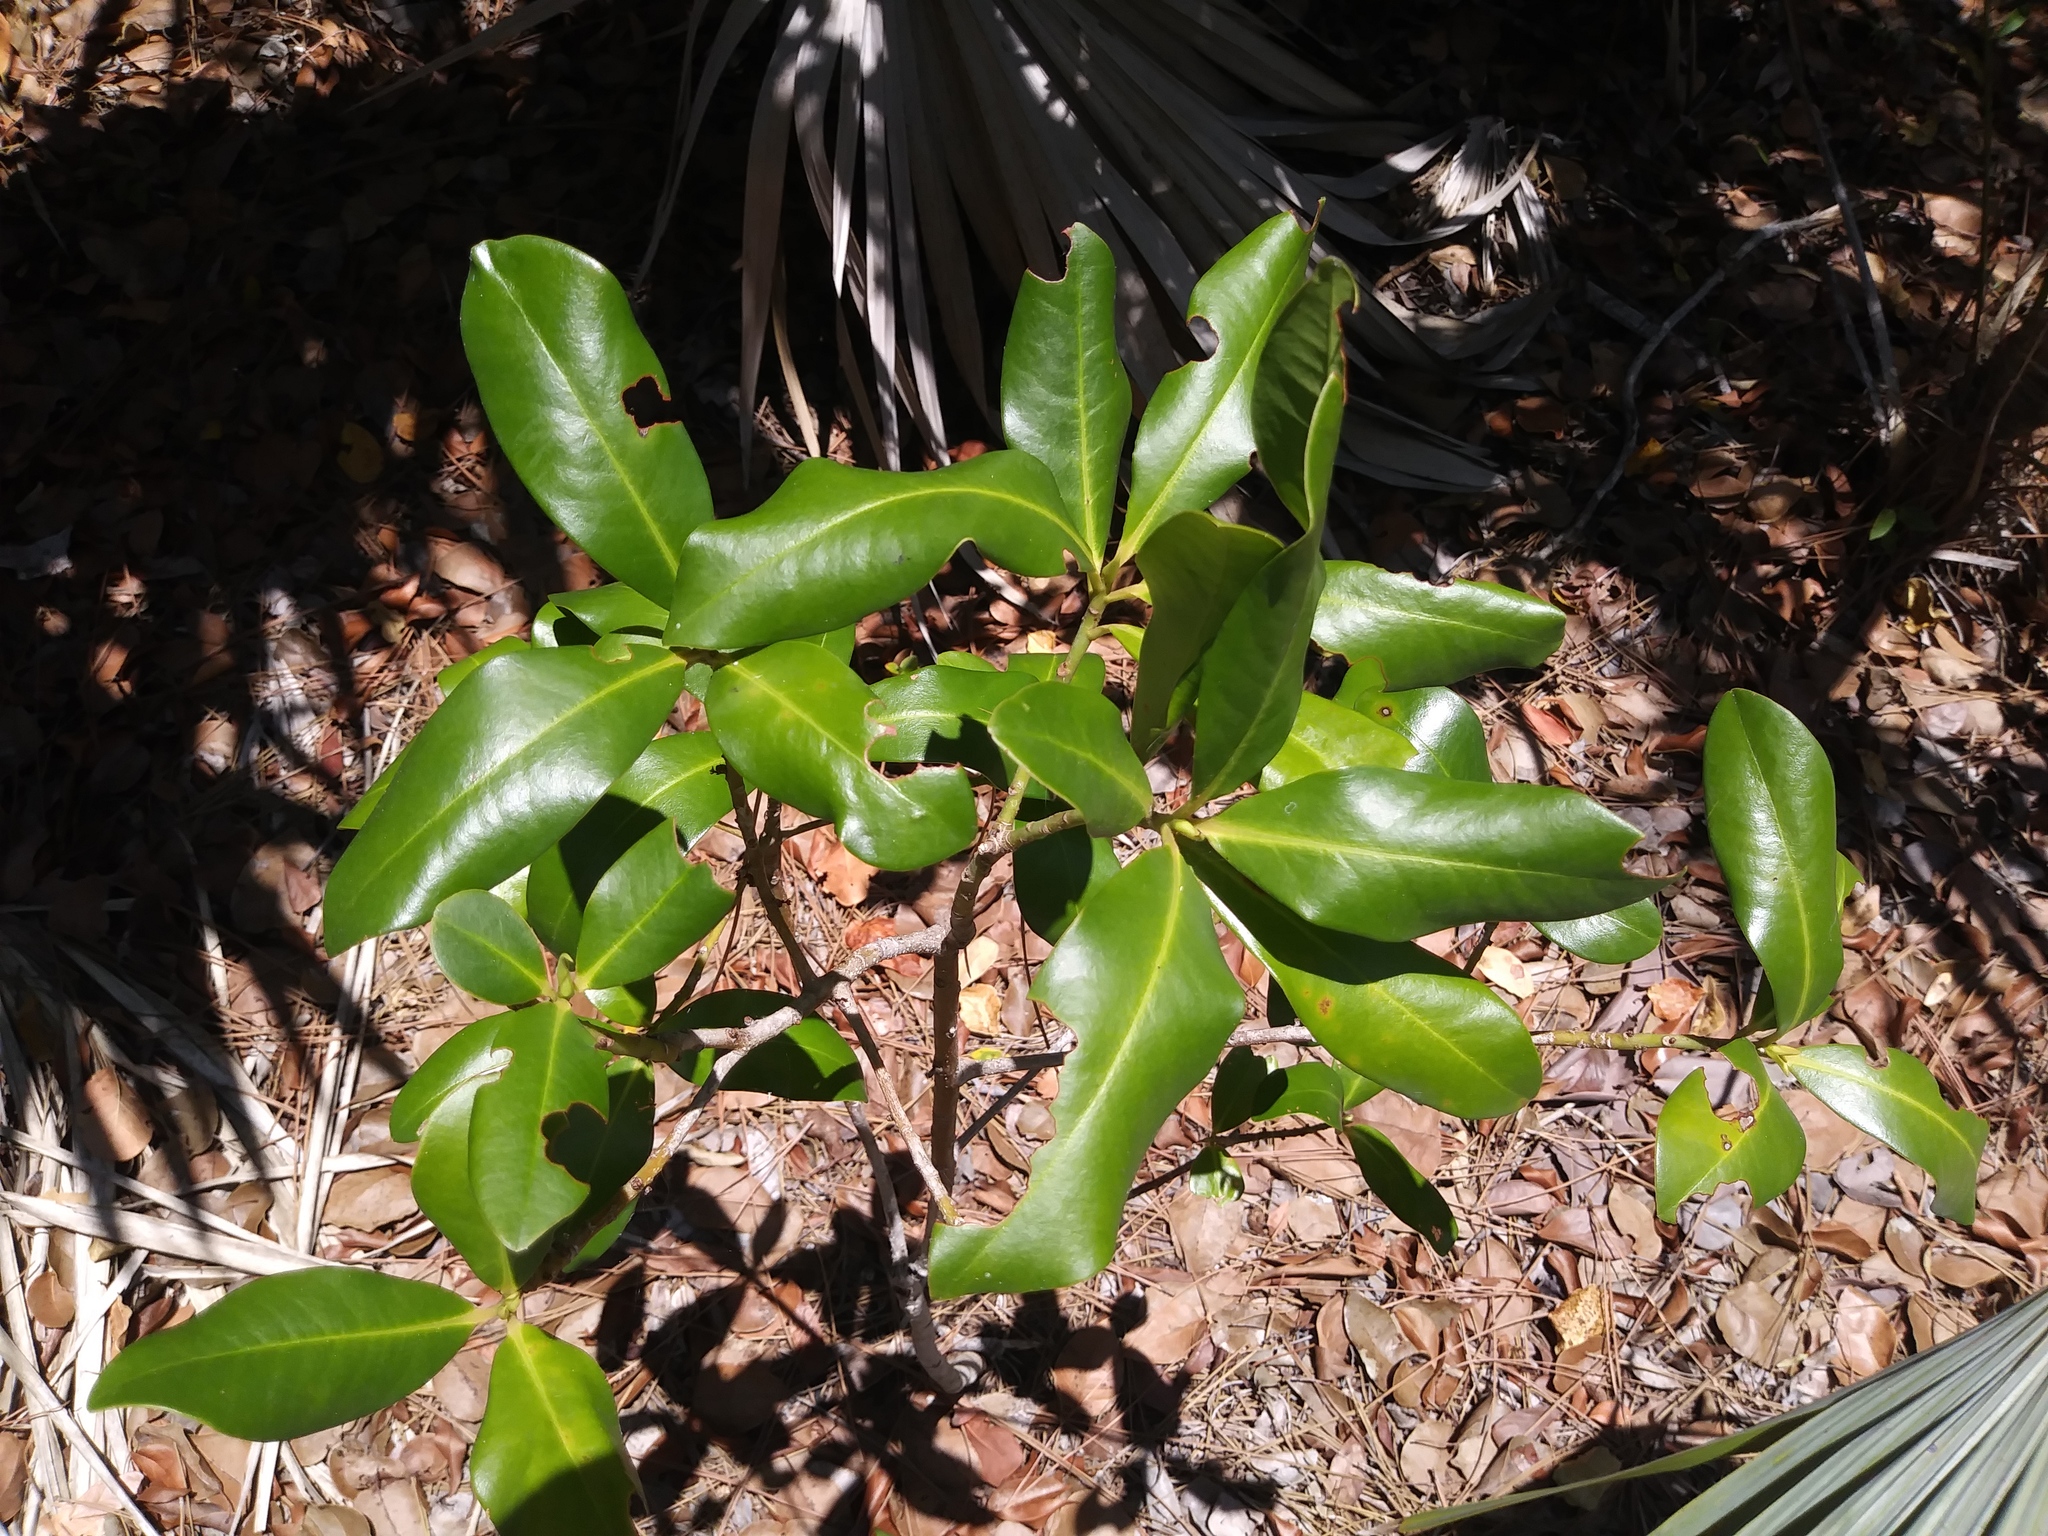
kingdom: Plantae
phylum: Tracheophyta
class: Magnoliopsida
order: Ericales
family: Primulaceae
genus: Myrsine
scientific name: Myrsine floridana
